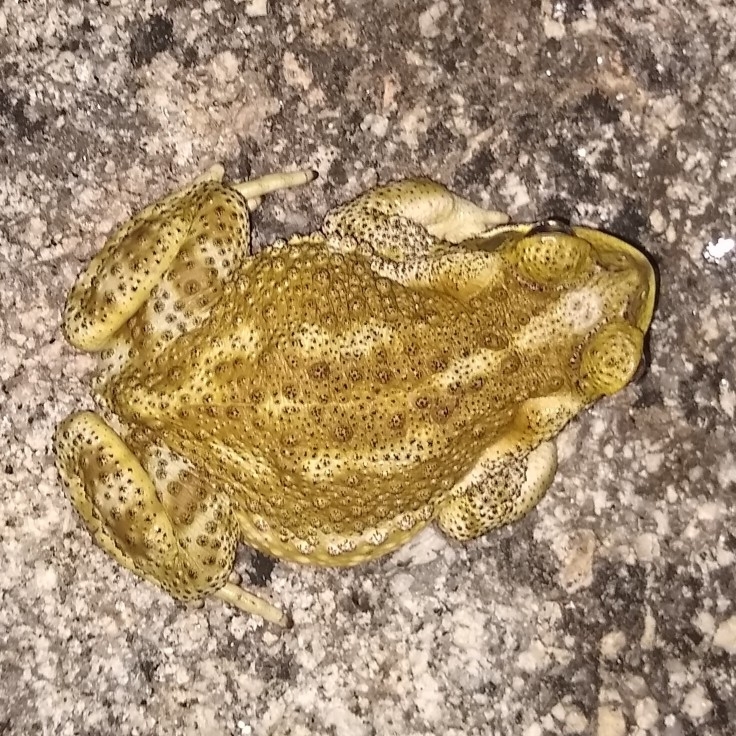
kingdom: Animalia
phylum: Chordata
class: Amphibia
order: Anura
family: Bufonidae
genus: Rhinella
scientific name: Rhinella arenarum
